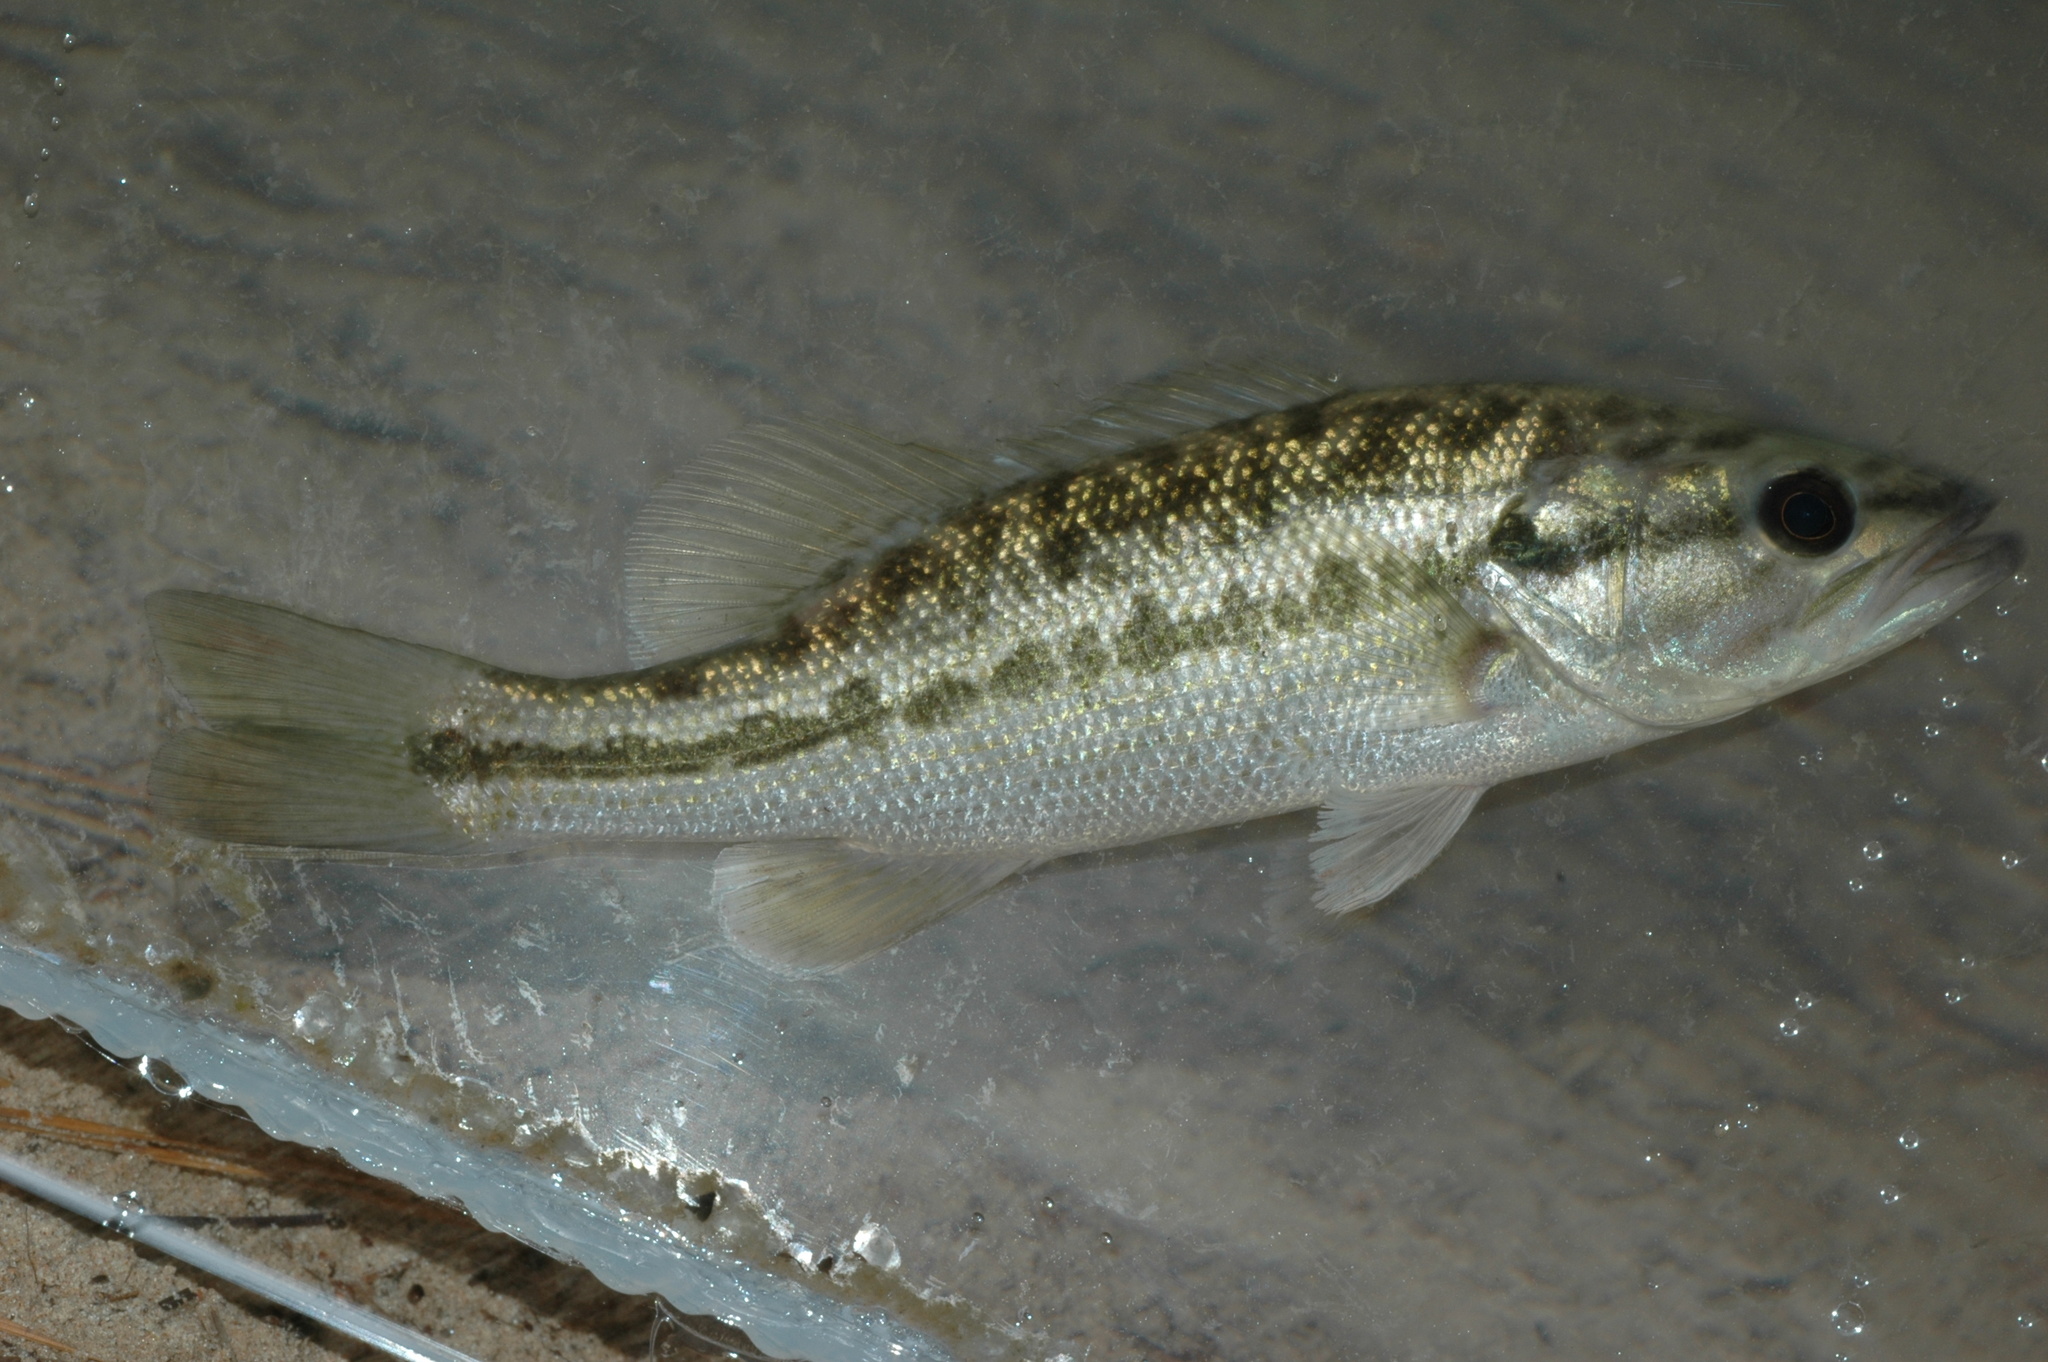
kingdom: Animalia
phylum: Chordata
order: Perciformes
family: Centrarchidae
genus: Micropterus
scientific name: Micropterus
